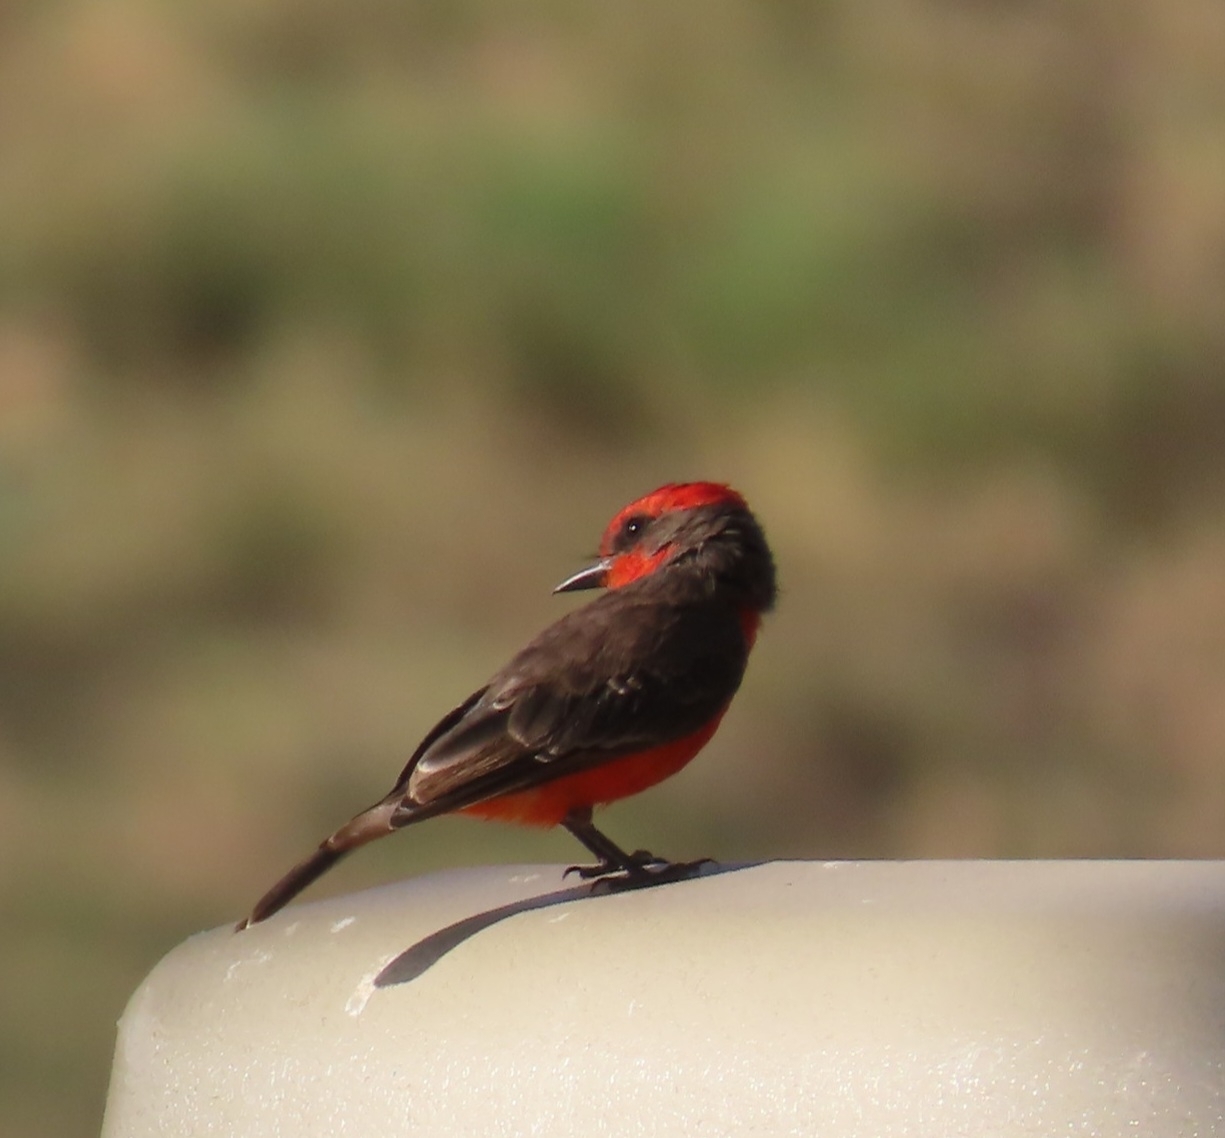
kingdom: Animalia
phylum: Chordata
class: Aves
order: Passeriformes
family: Tyrannidae
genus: Pyrocephalus
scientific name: Pyrocephalus rubinus
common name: Vermilion flycatcher
